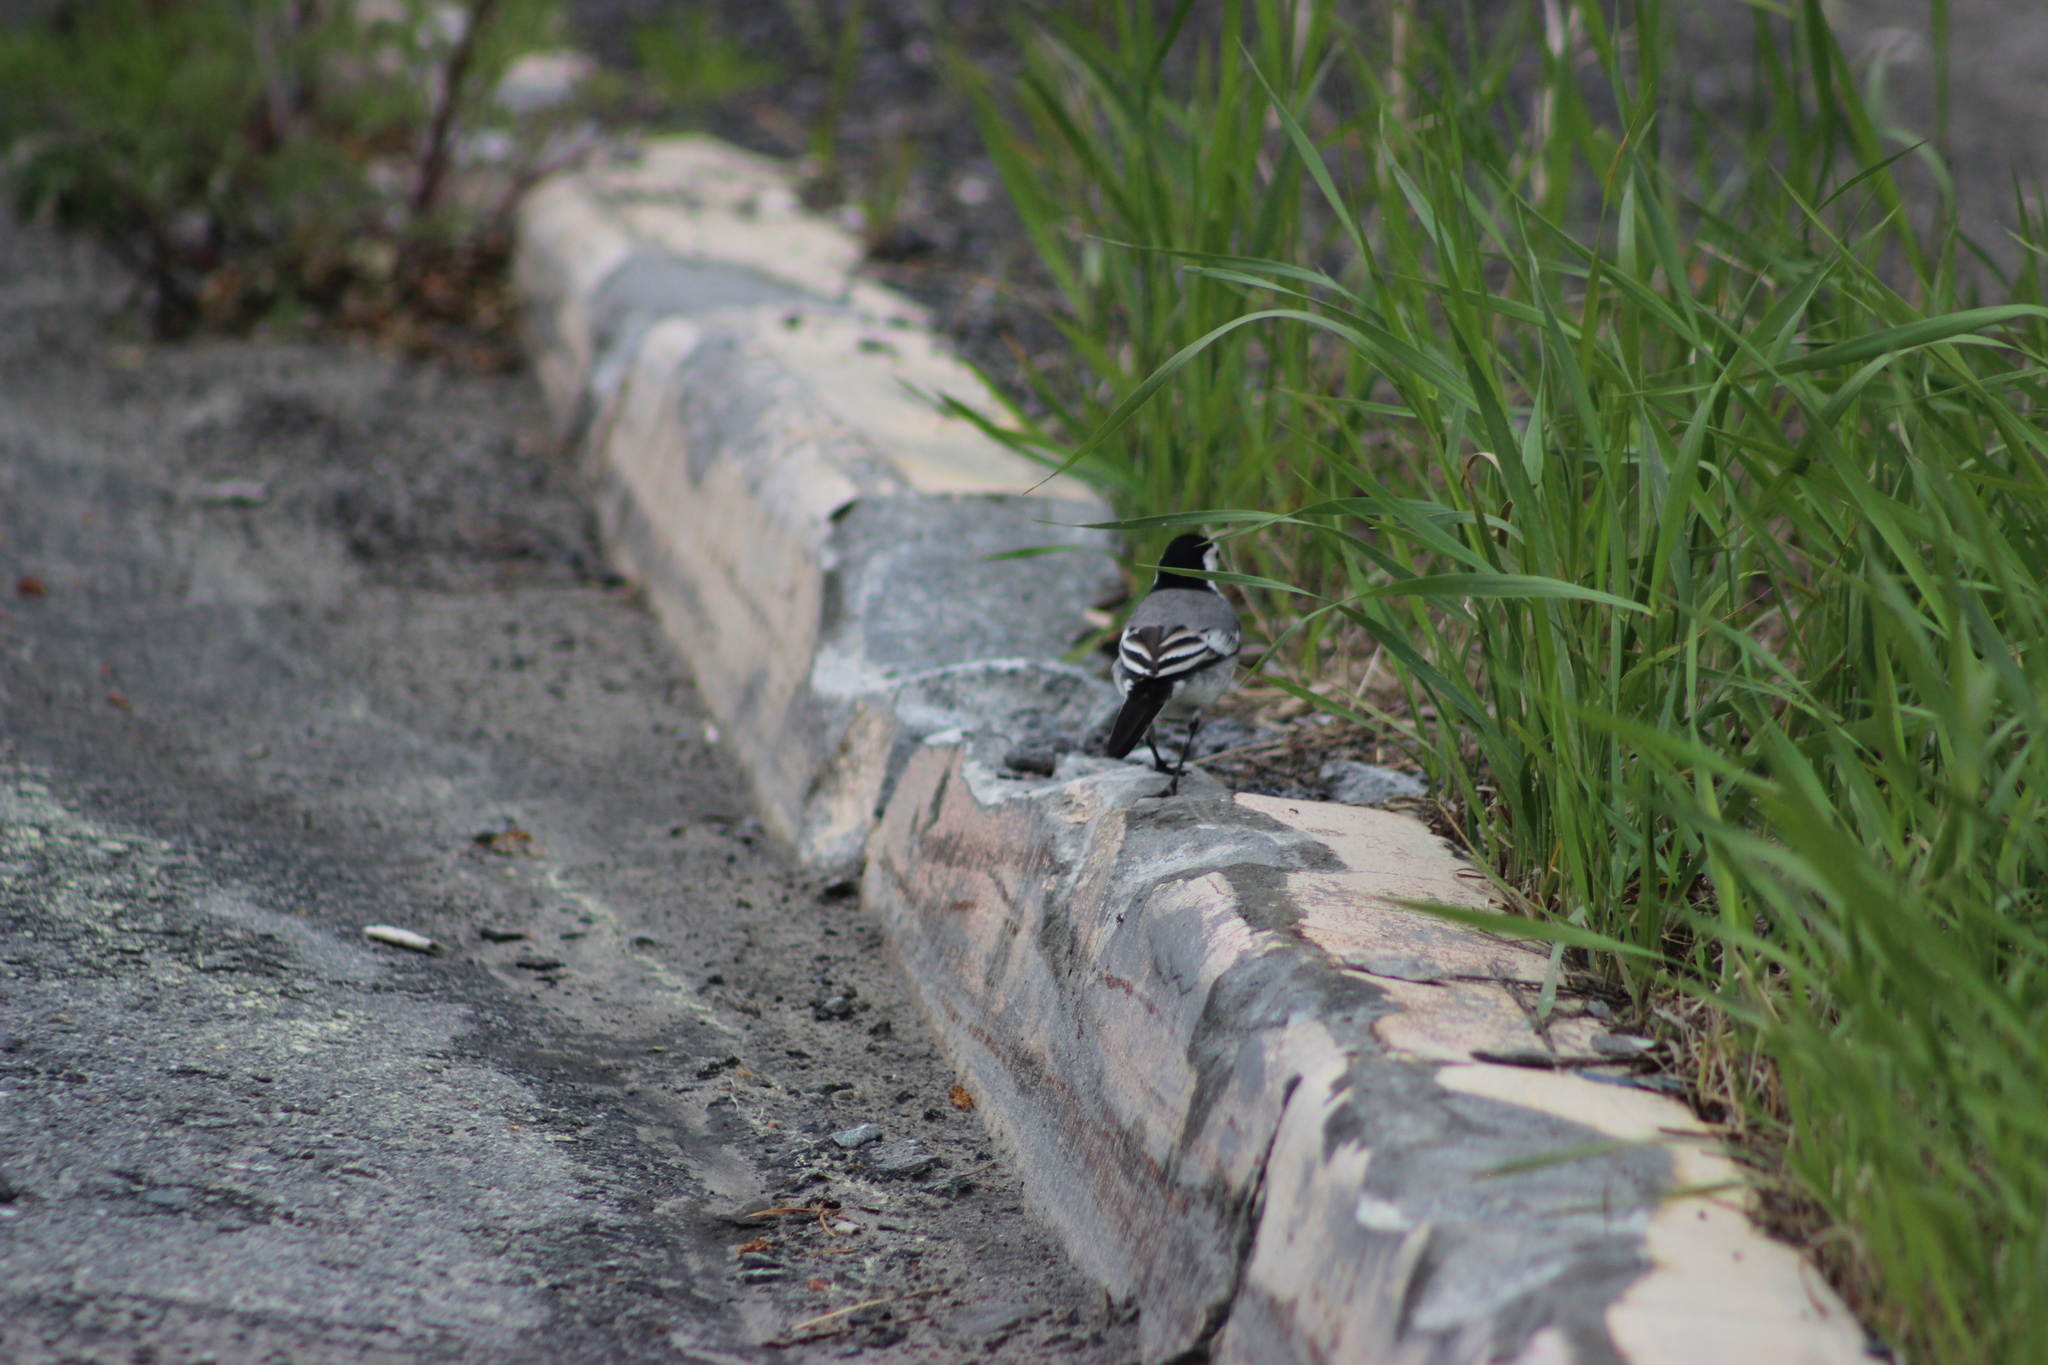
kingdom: Animalia
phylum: Chordata
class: Aves
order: Passeriformes
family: Motacillidae
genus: Motacilla
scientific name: Motacilla alba
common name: White wagtail
